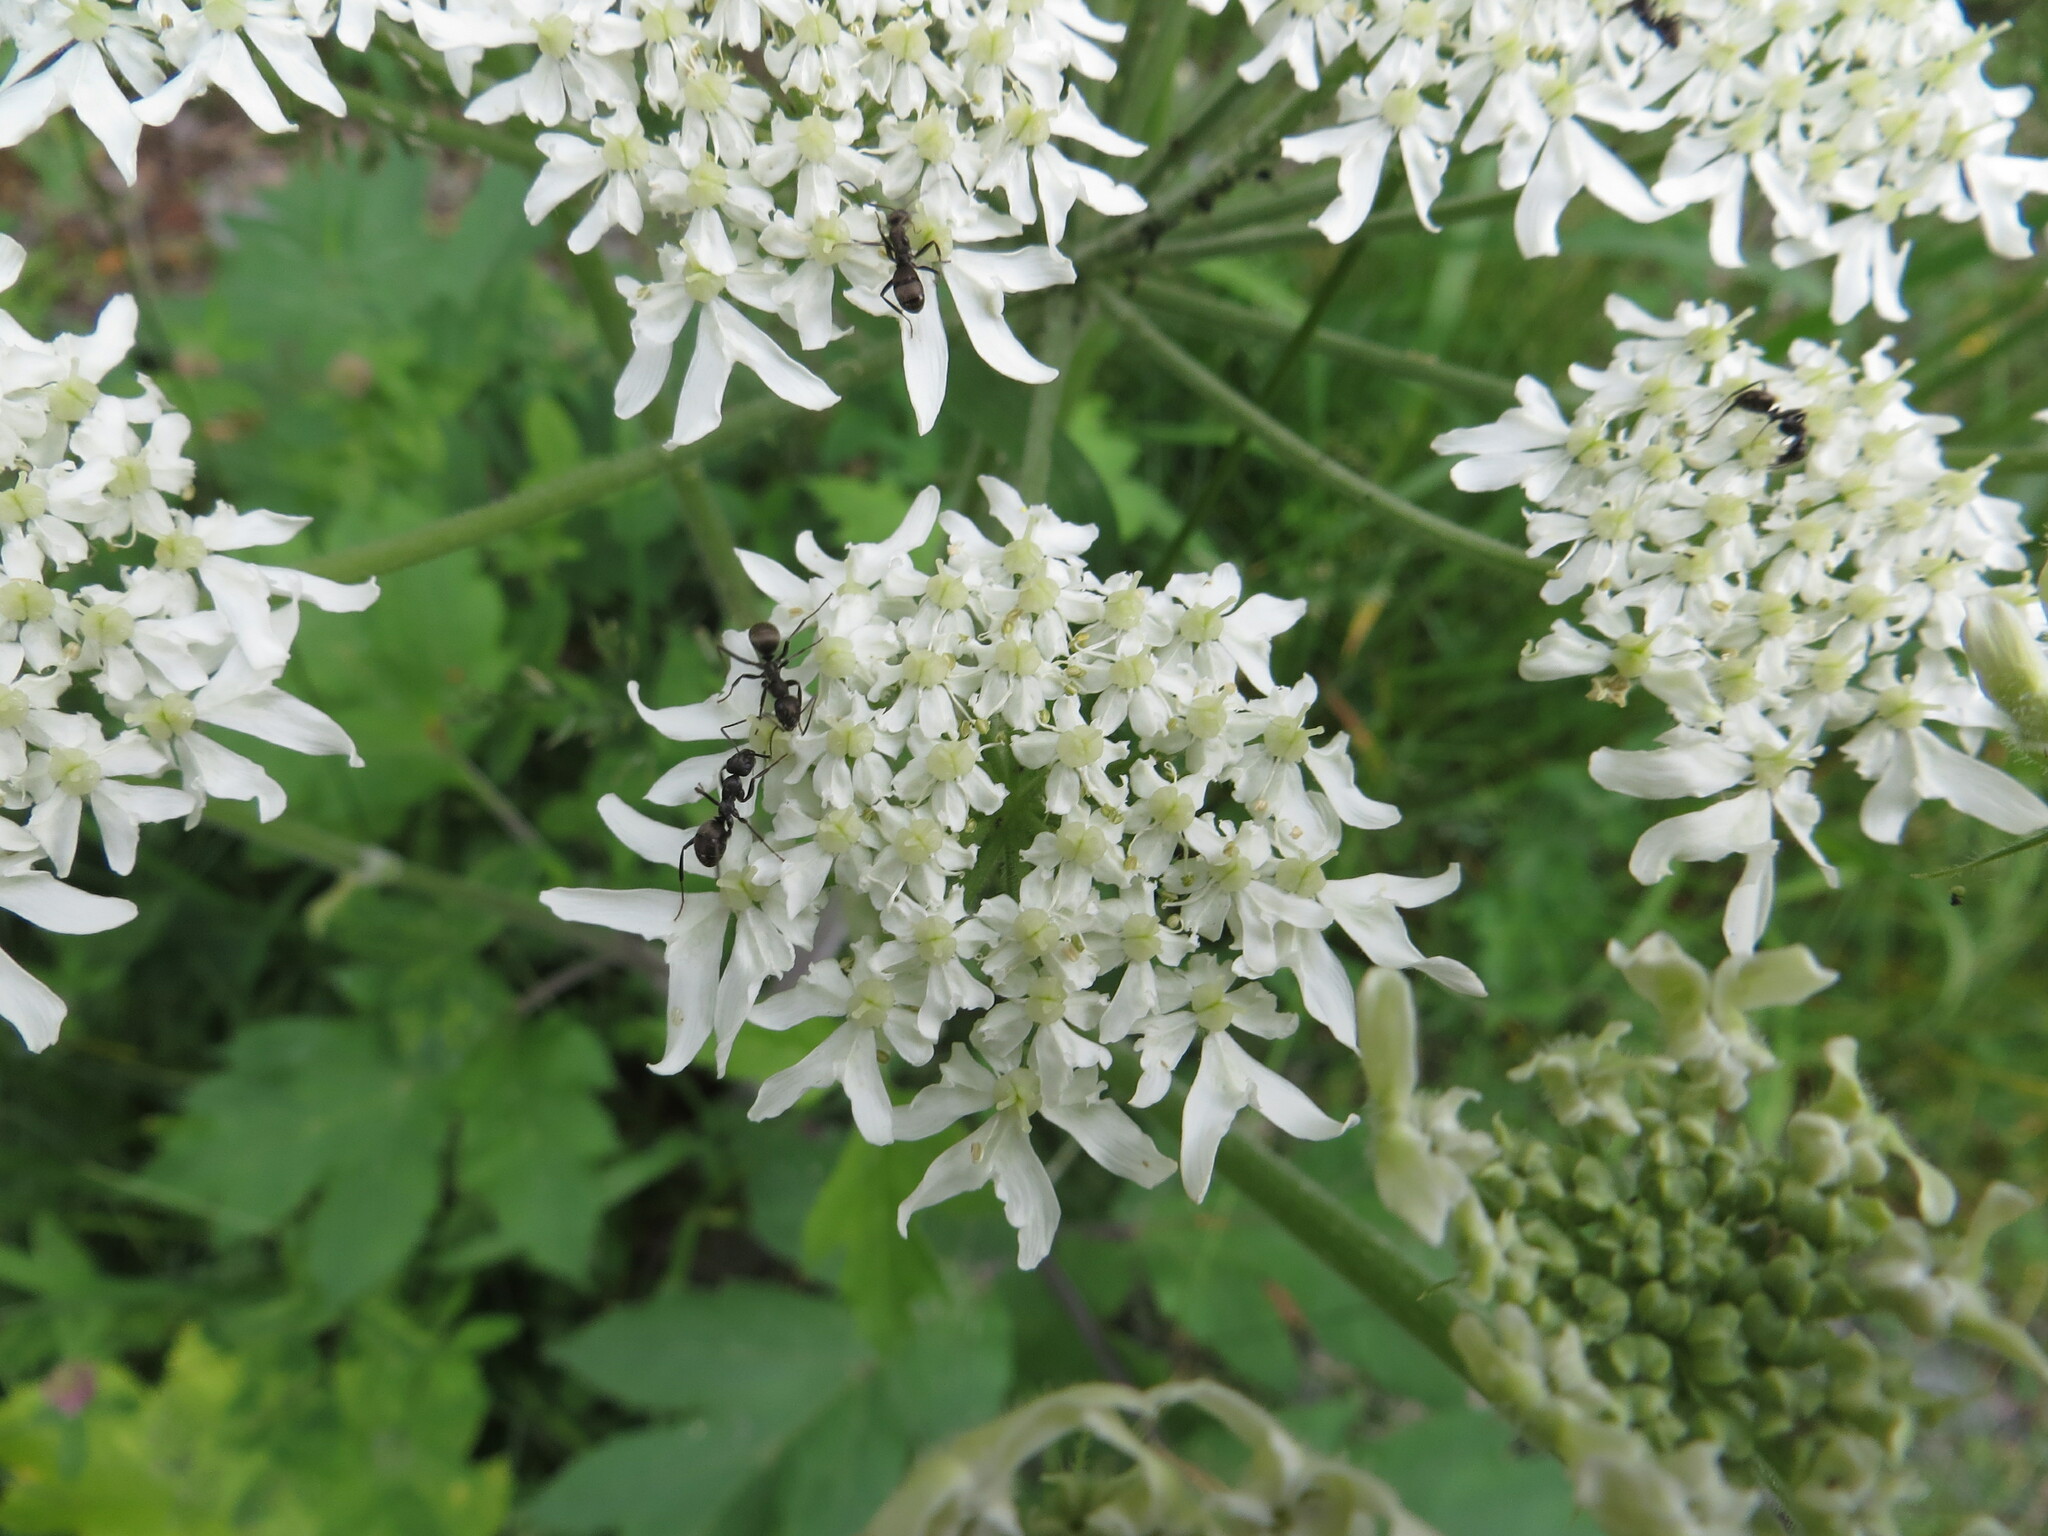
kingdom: Plantae
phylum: Tracheophyta
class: Magnoliopsida
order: Apiales
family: Apiaceae
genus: Heracleum
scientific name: Heracleum dissectum
